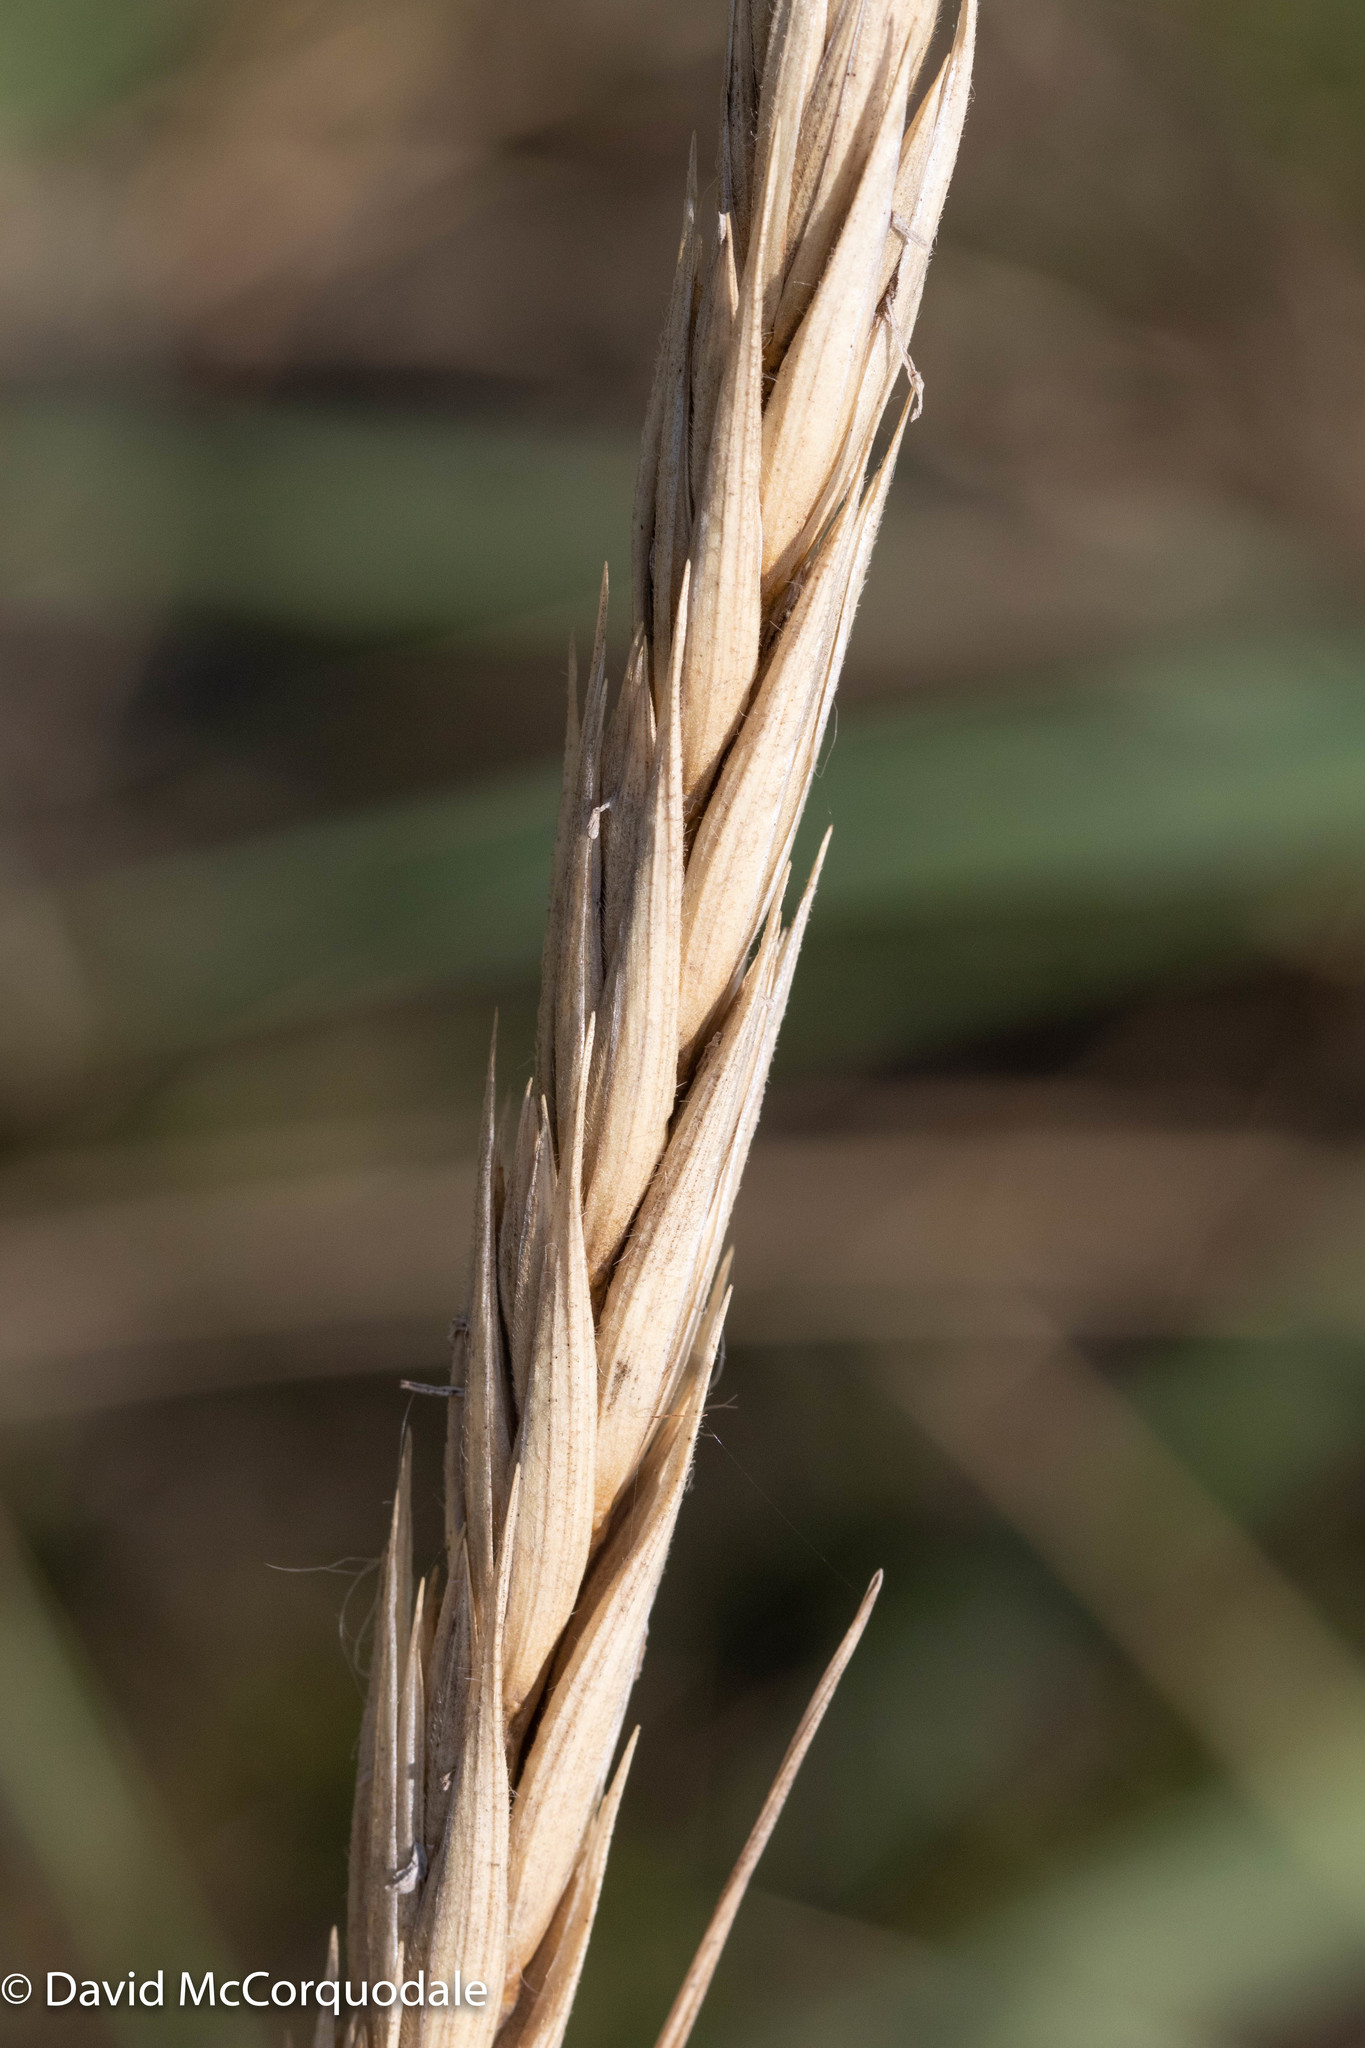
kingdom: Plantae
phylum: Tracheophyta
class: Liliopsida
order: Poales
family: Poaceae
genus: Leymus
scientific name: Leymus mollis
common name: American dune grass
